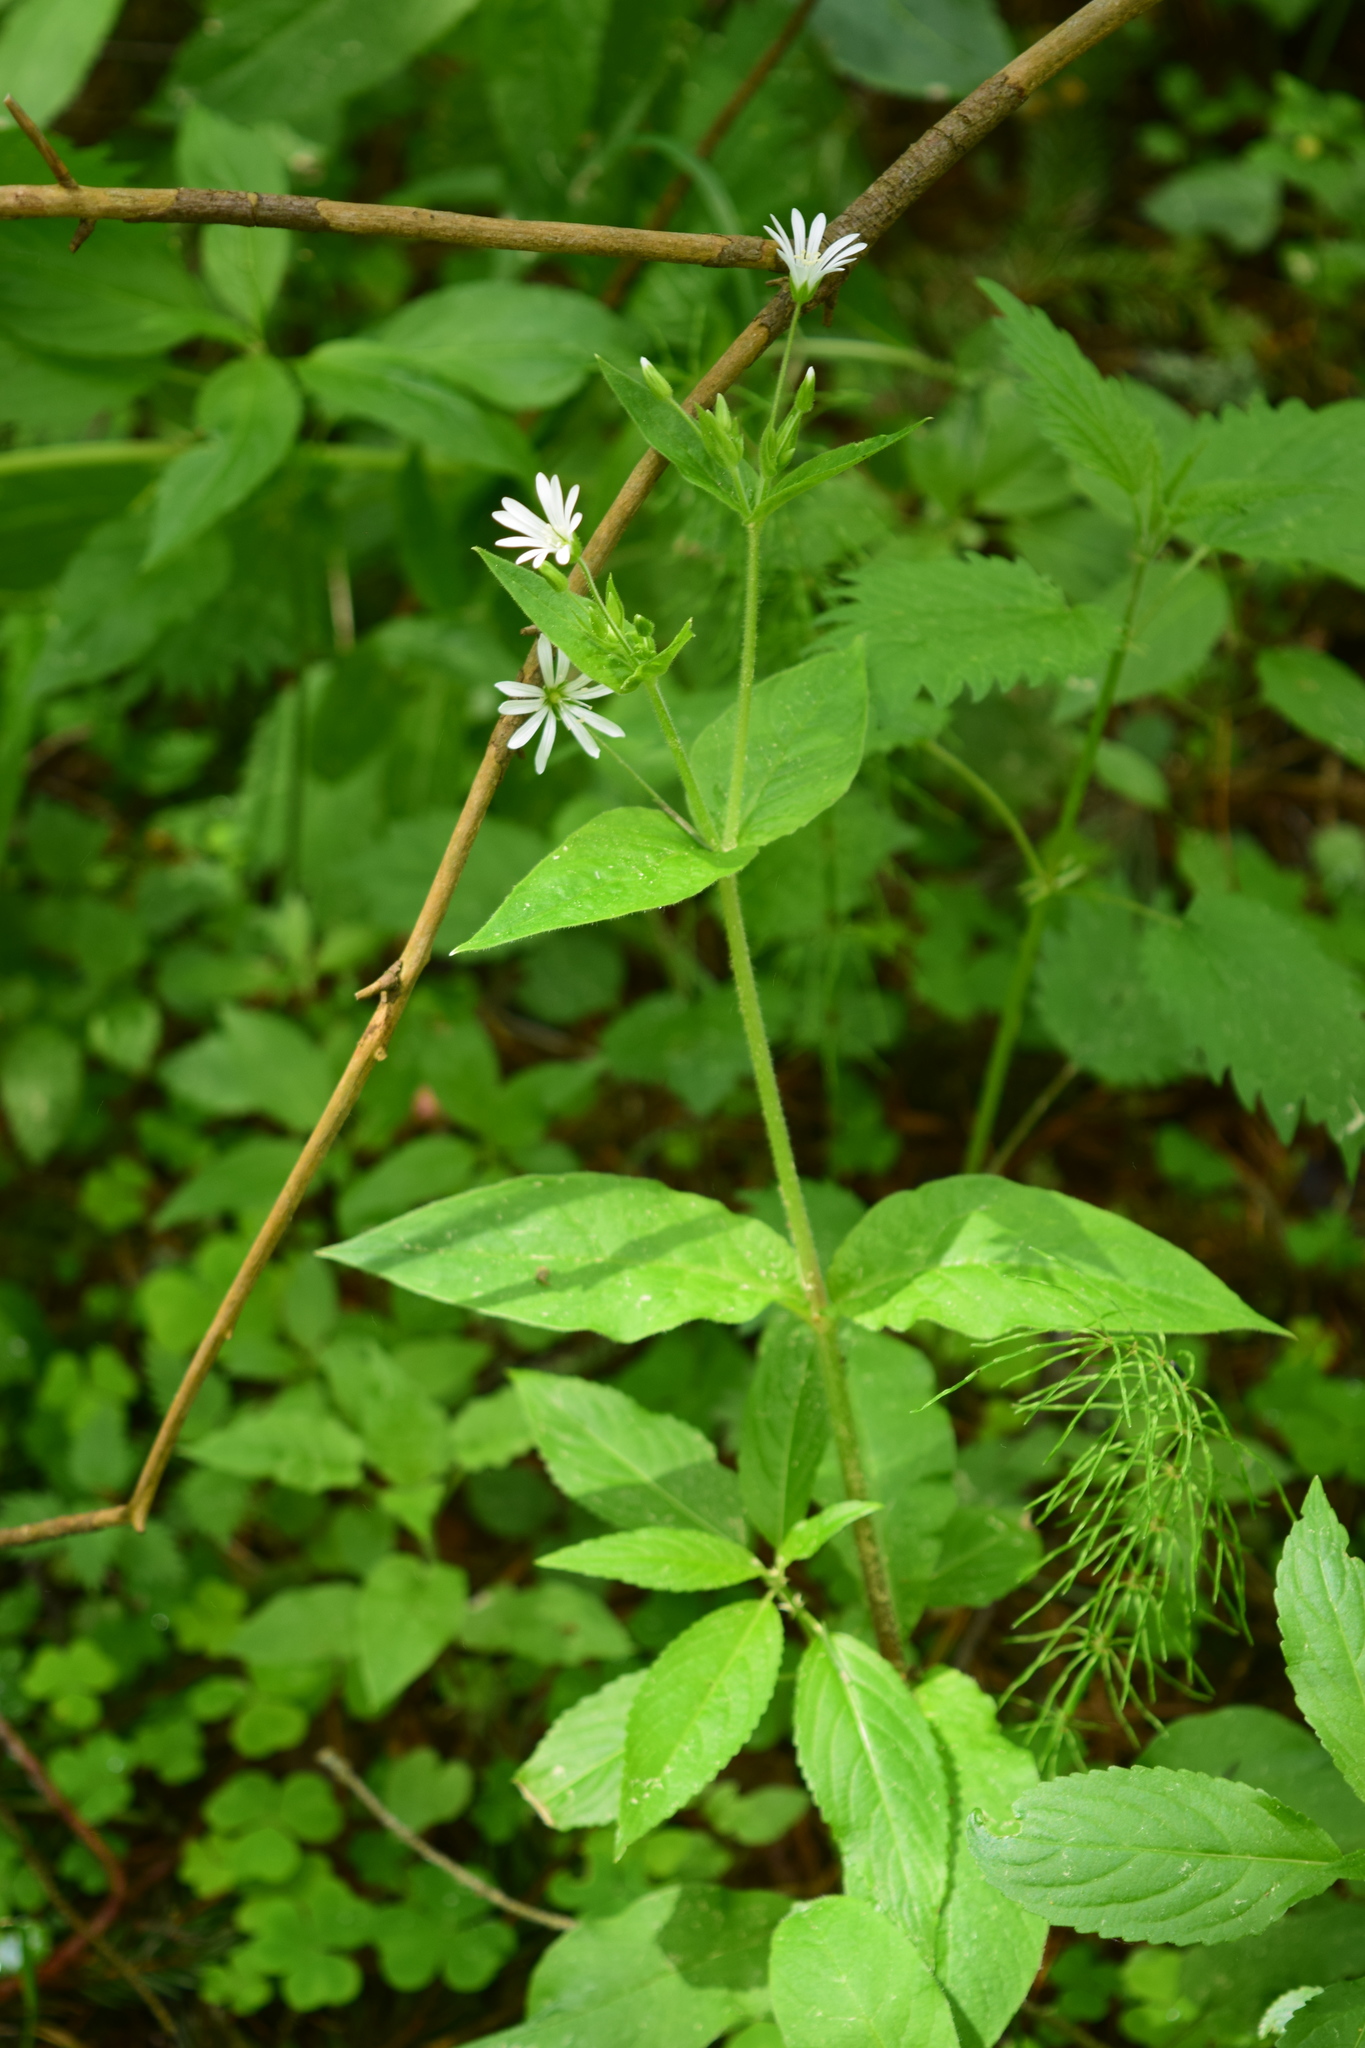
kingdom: Plantae
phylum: Tracheophyta
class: Magnoliopsida
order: Caryophyllales
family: Caryophyllaceae
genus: Stellaria
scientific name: Stellaria nemorum
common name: Wood stitchwort
